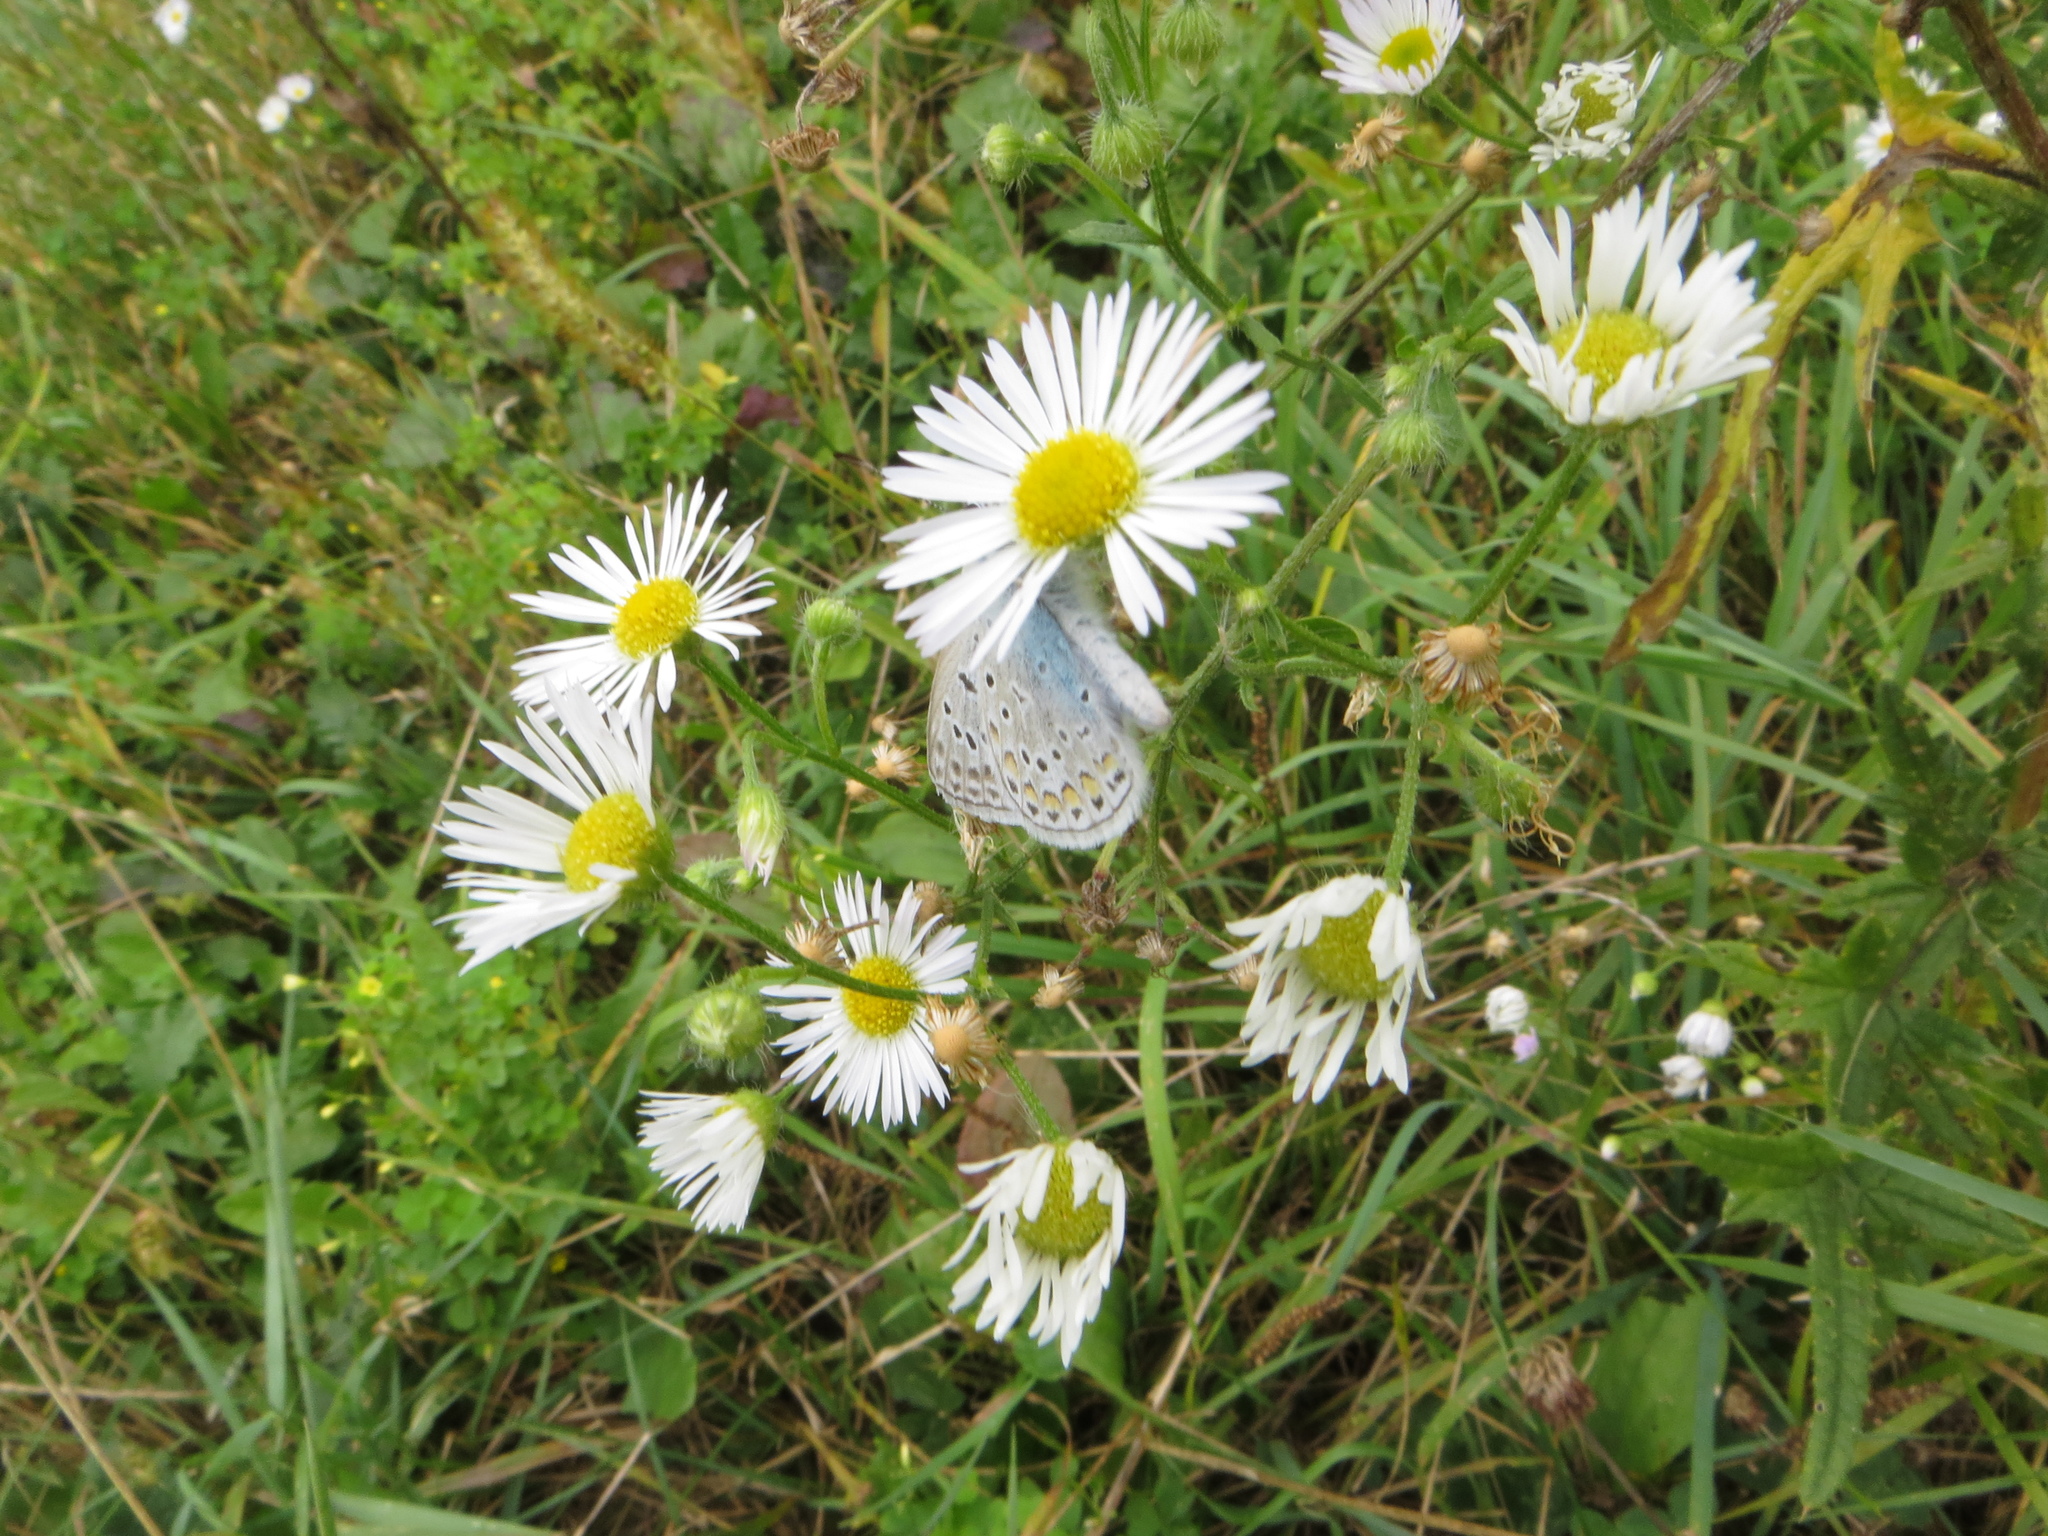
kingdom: Animalia
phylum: Arthropoda
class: Insecta
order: Lepidoptera
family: Lycaenidae
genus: Polyommatus
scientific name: Polyommatus icarus
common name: Common blue
